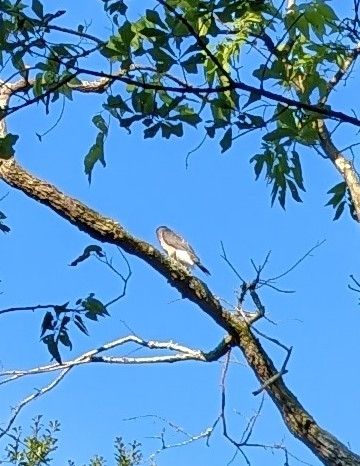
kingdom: Animalia
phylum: Chordata
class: Aves
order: Accipitriformes
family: Accipitridae
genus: Ictinia
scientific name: Ictinia mississippiensis
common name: Mississippi kite
